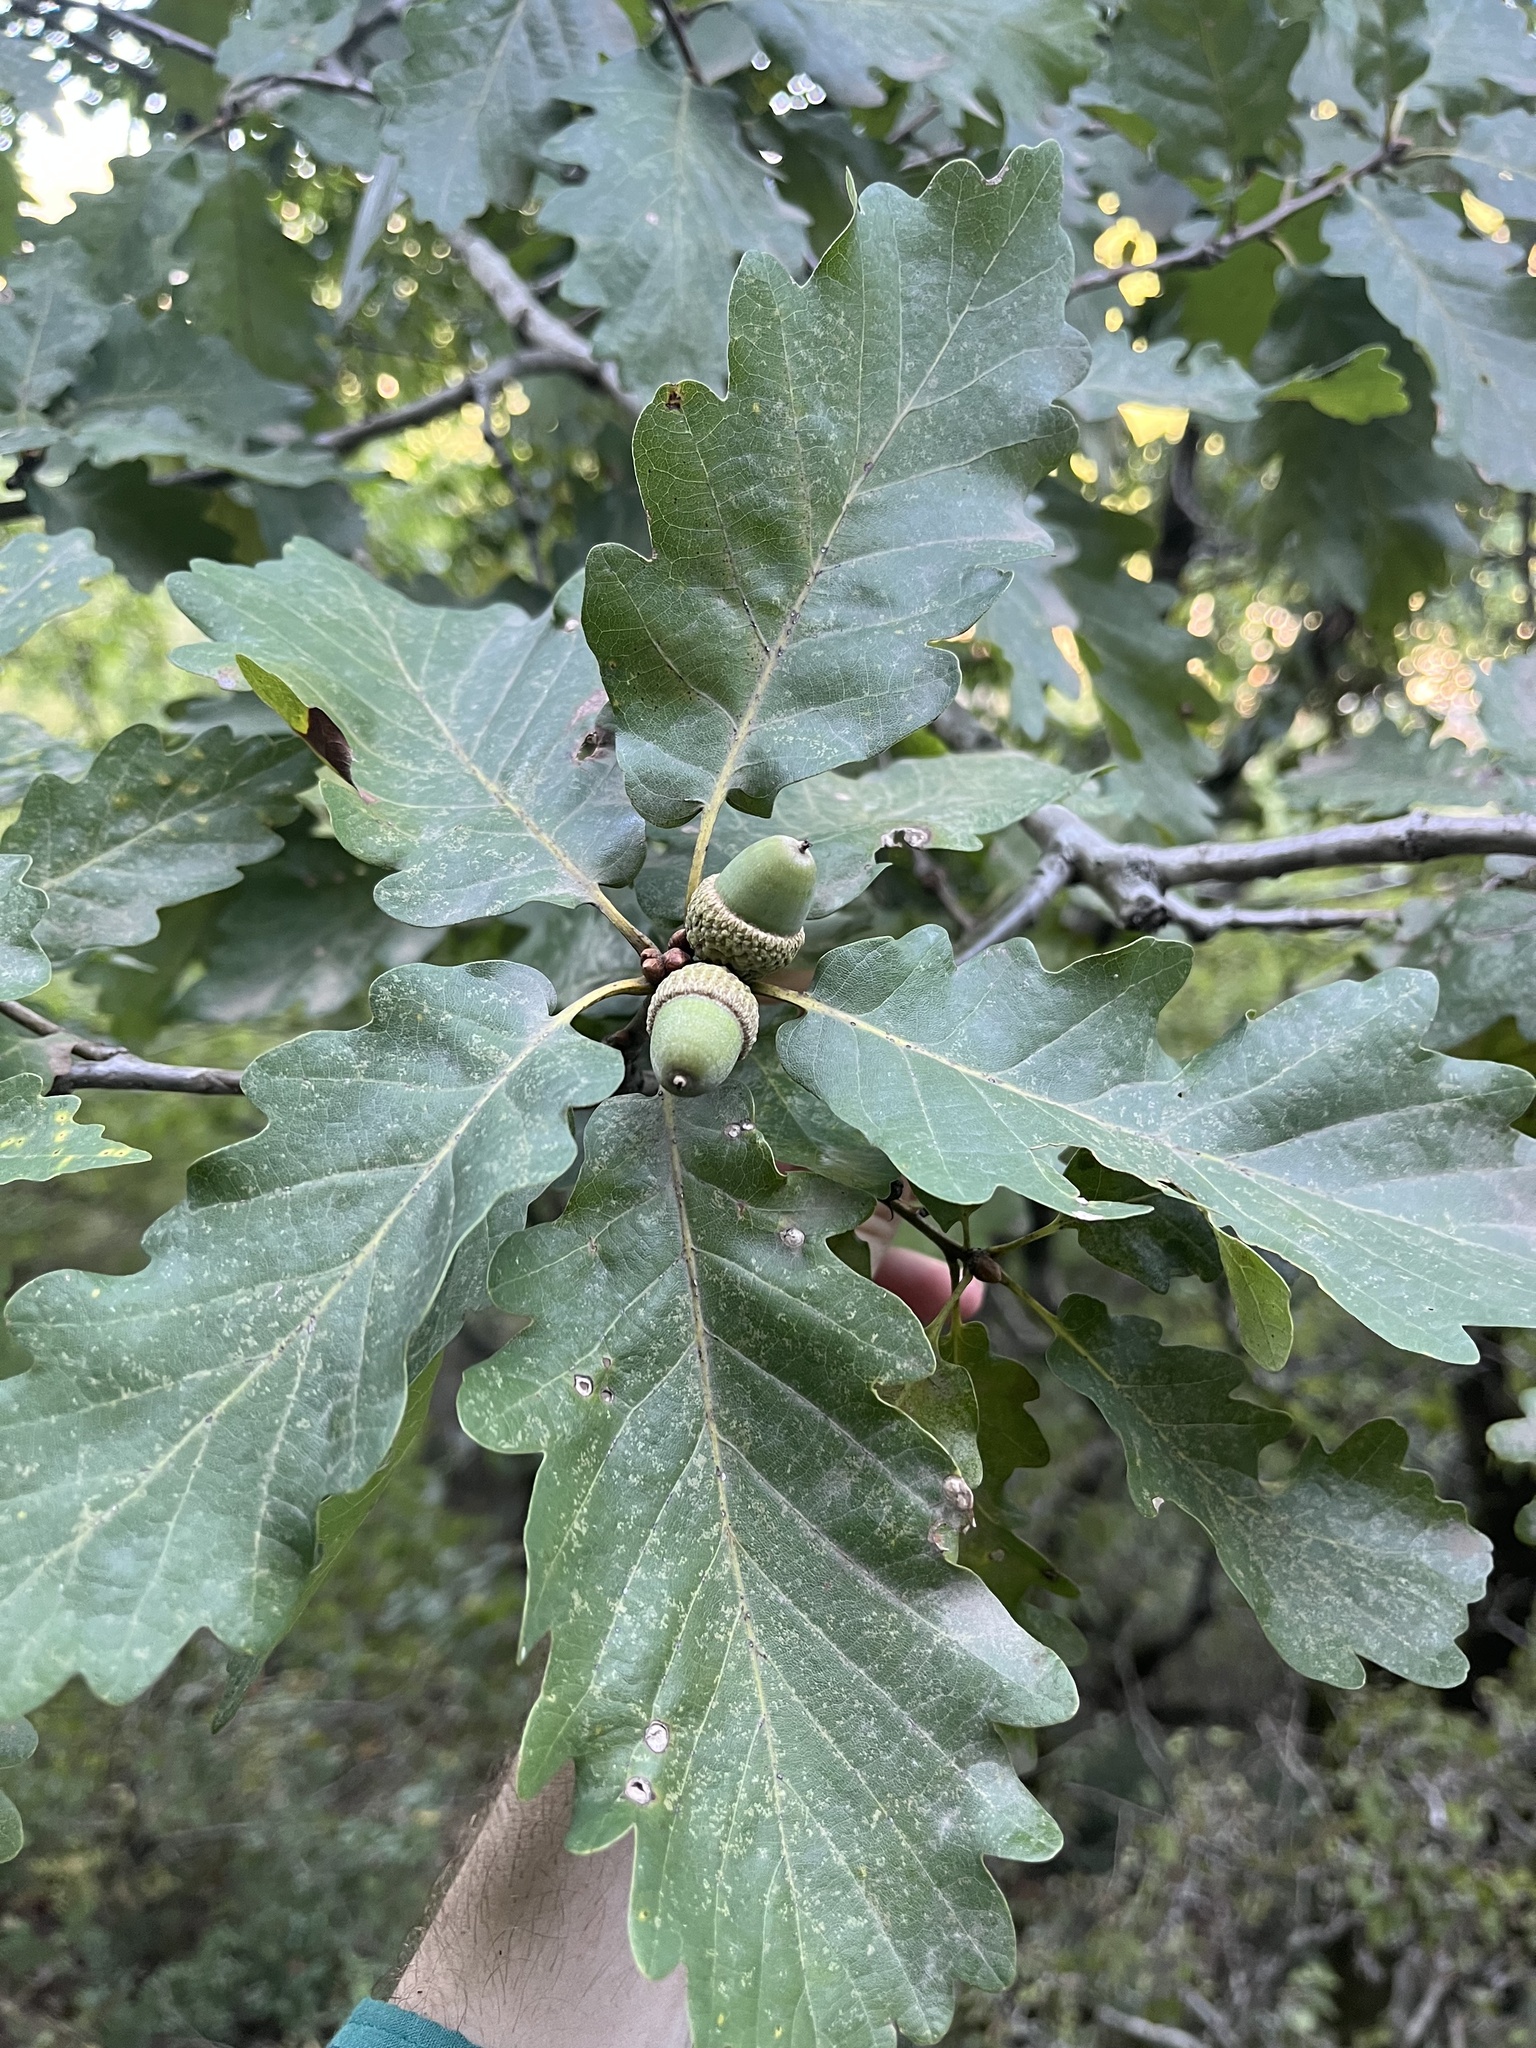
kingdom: Plantae
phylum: Tracheophyta
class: Magnoliopsida
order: Fagales
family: Fagaceae
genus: Quercus
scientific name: Quercus petraea
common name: Sessile oak
